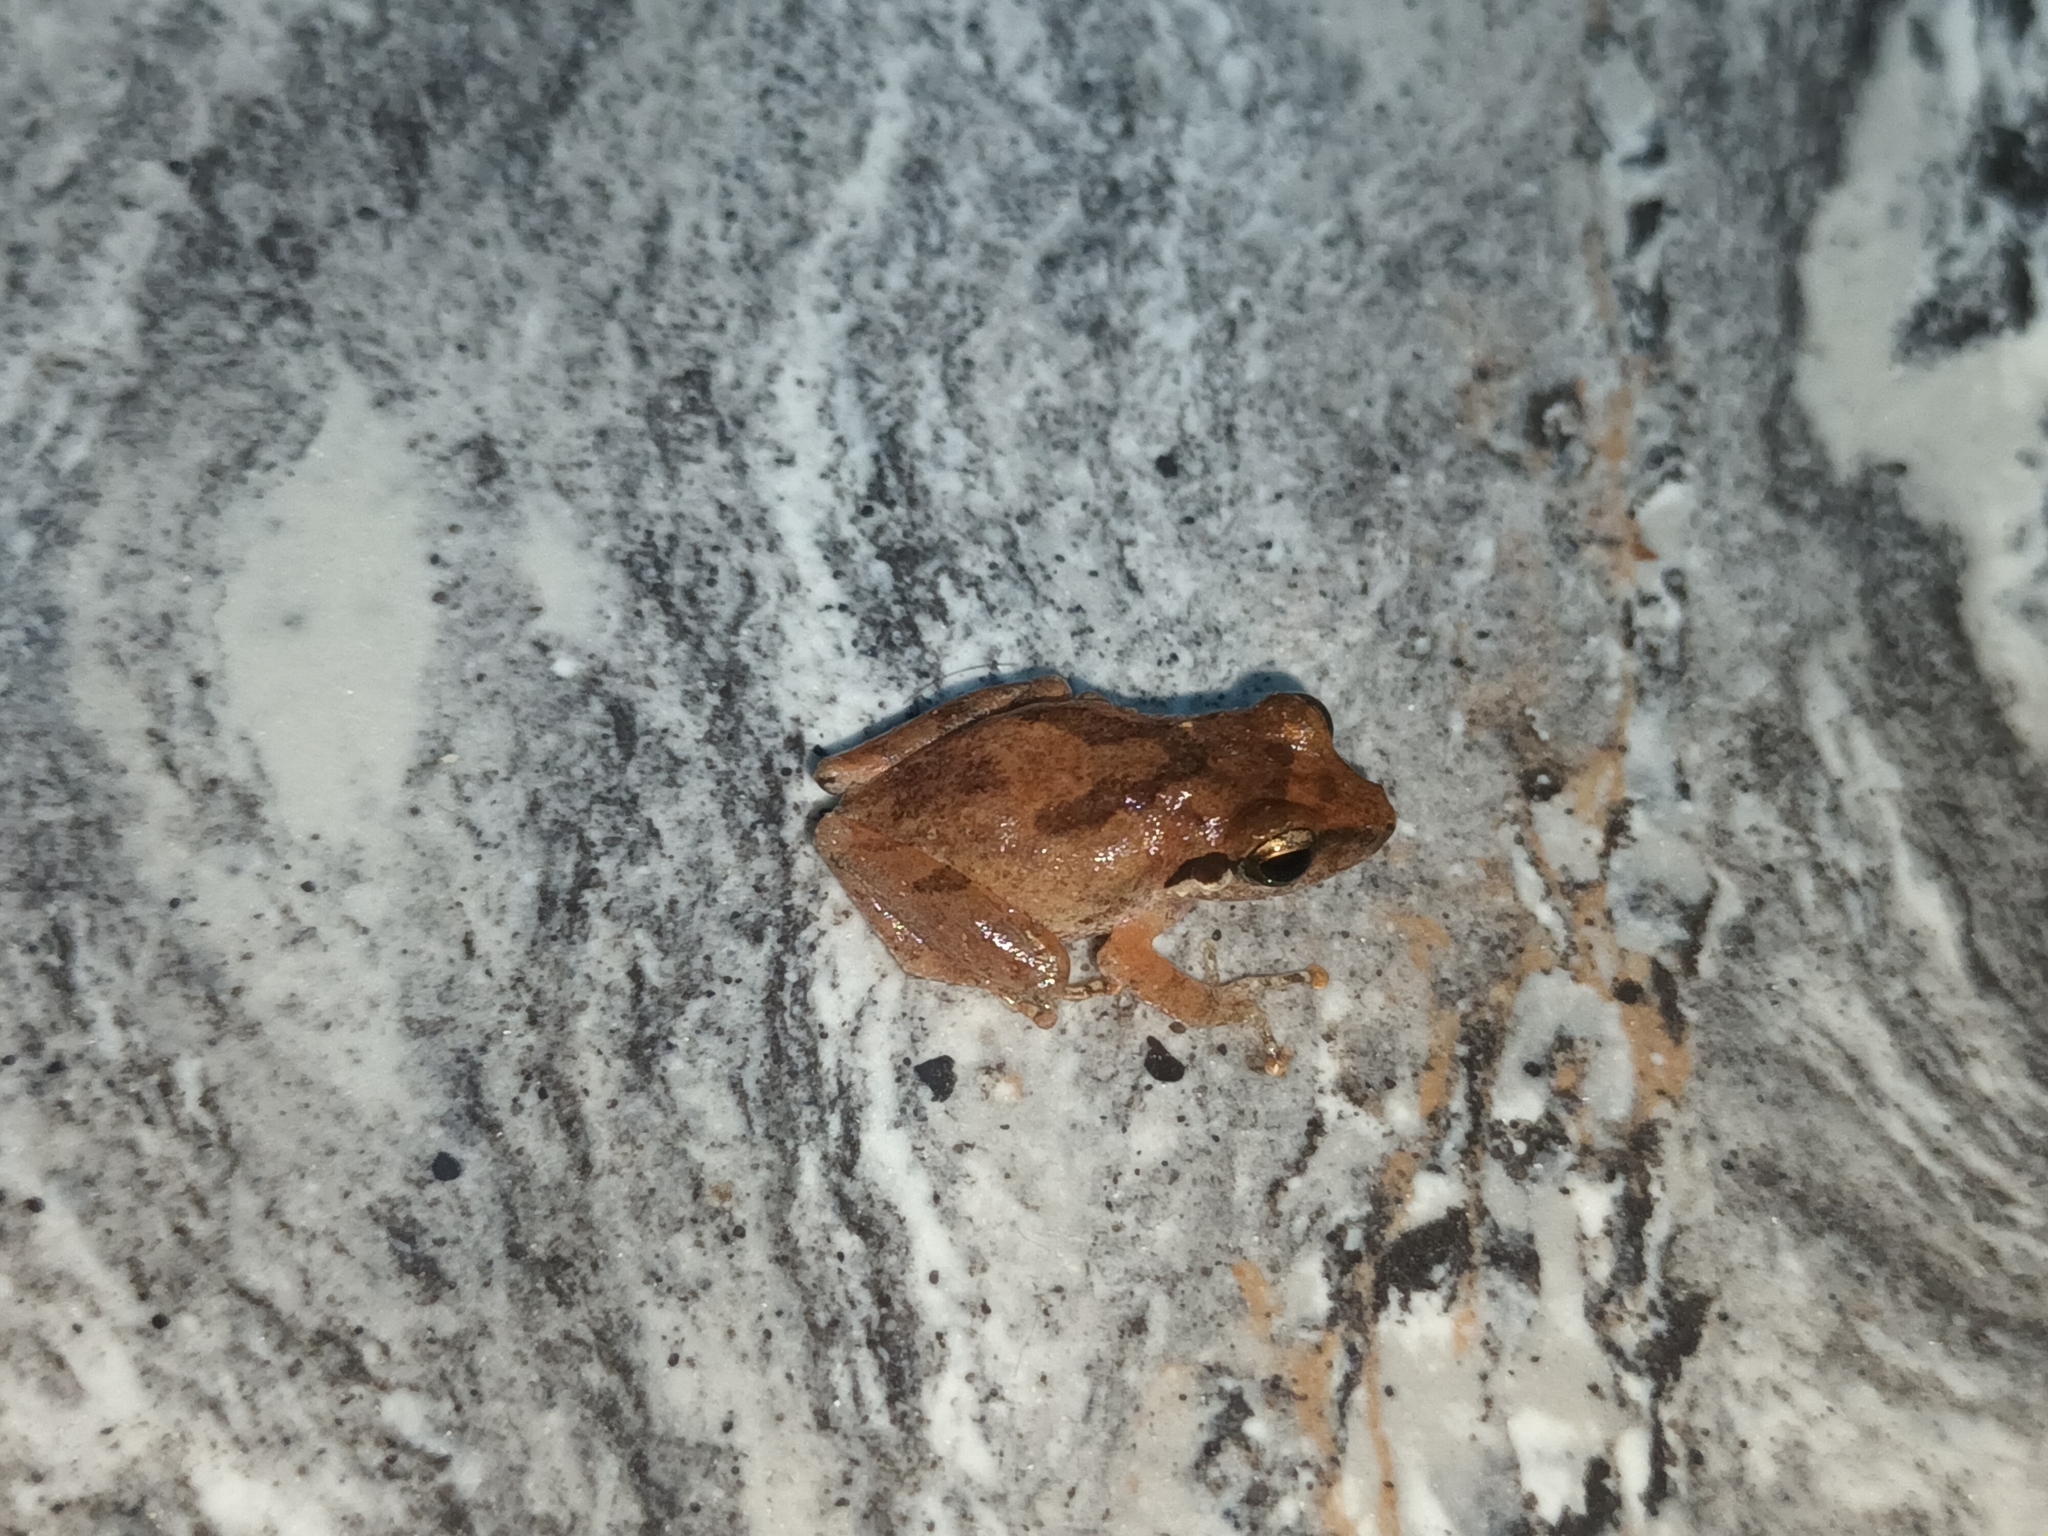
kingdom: Animalia
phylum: Chordata
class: Amphibia
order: Anura
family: Rhacophoridae
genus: Pseudophilautus
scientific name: Pseudophilautus kani
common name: Kani bush frog
